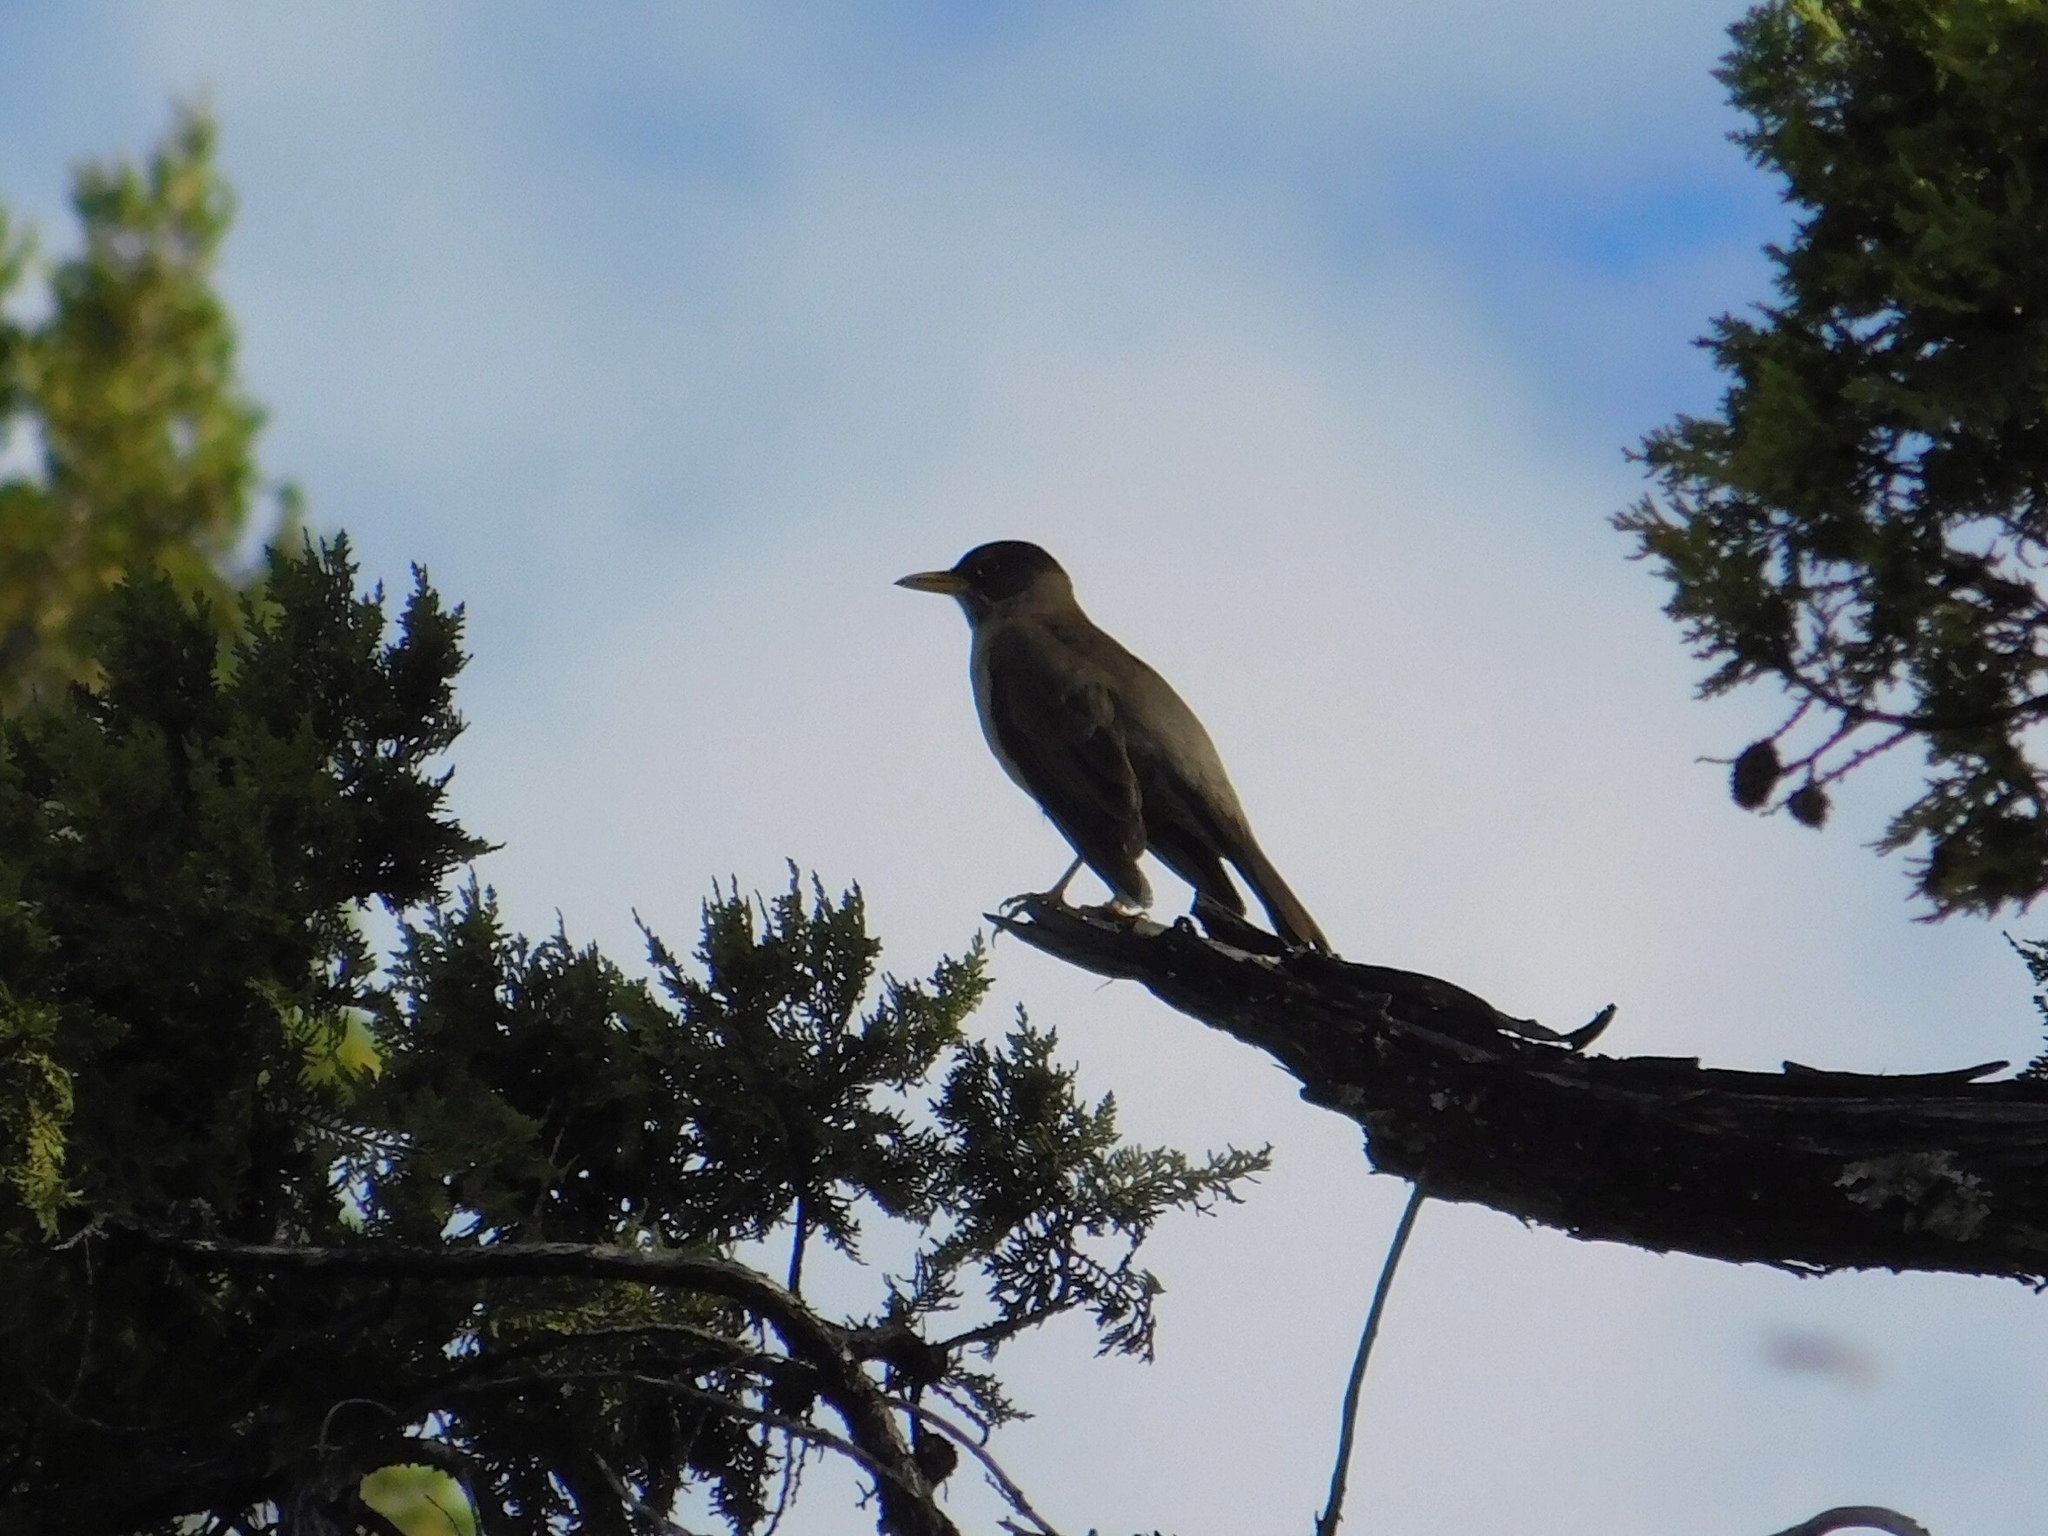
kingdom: Animalia
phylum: Chordata
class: Aves
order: Passeriformes
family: Turdidae
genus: Turdus
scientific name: Turdus falcklandii
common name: Austral thrush
